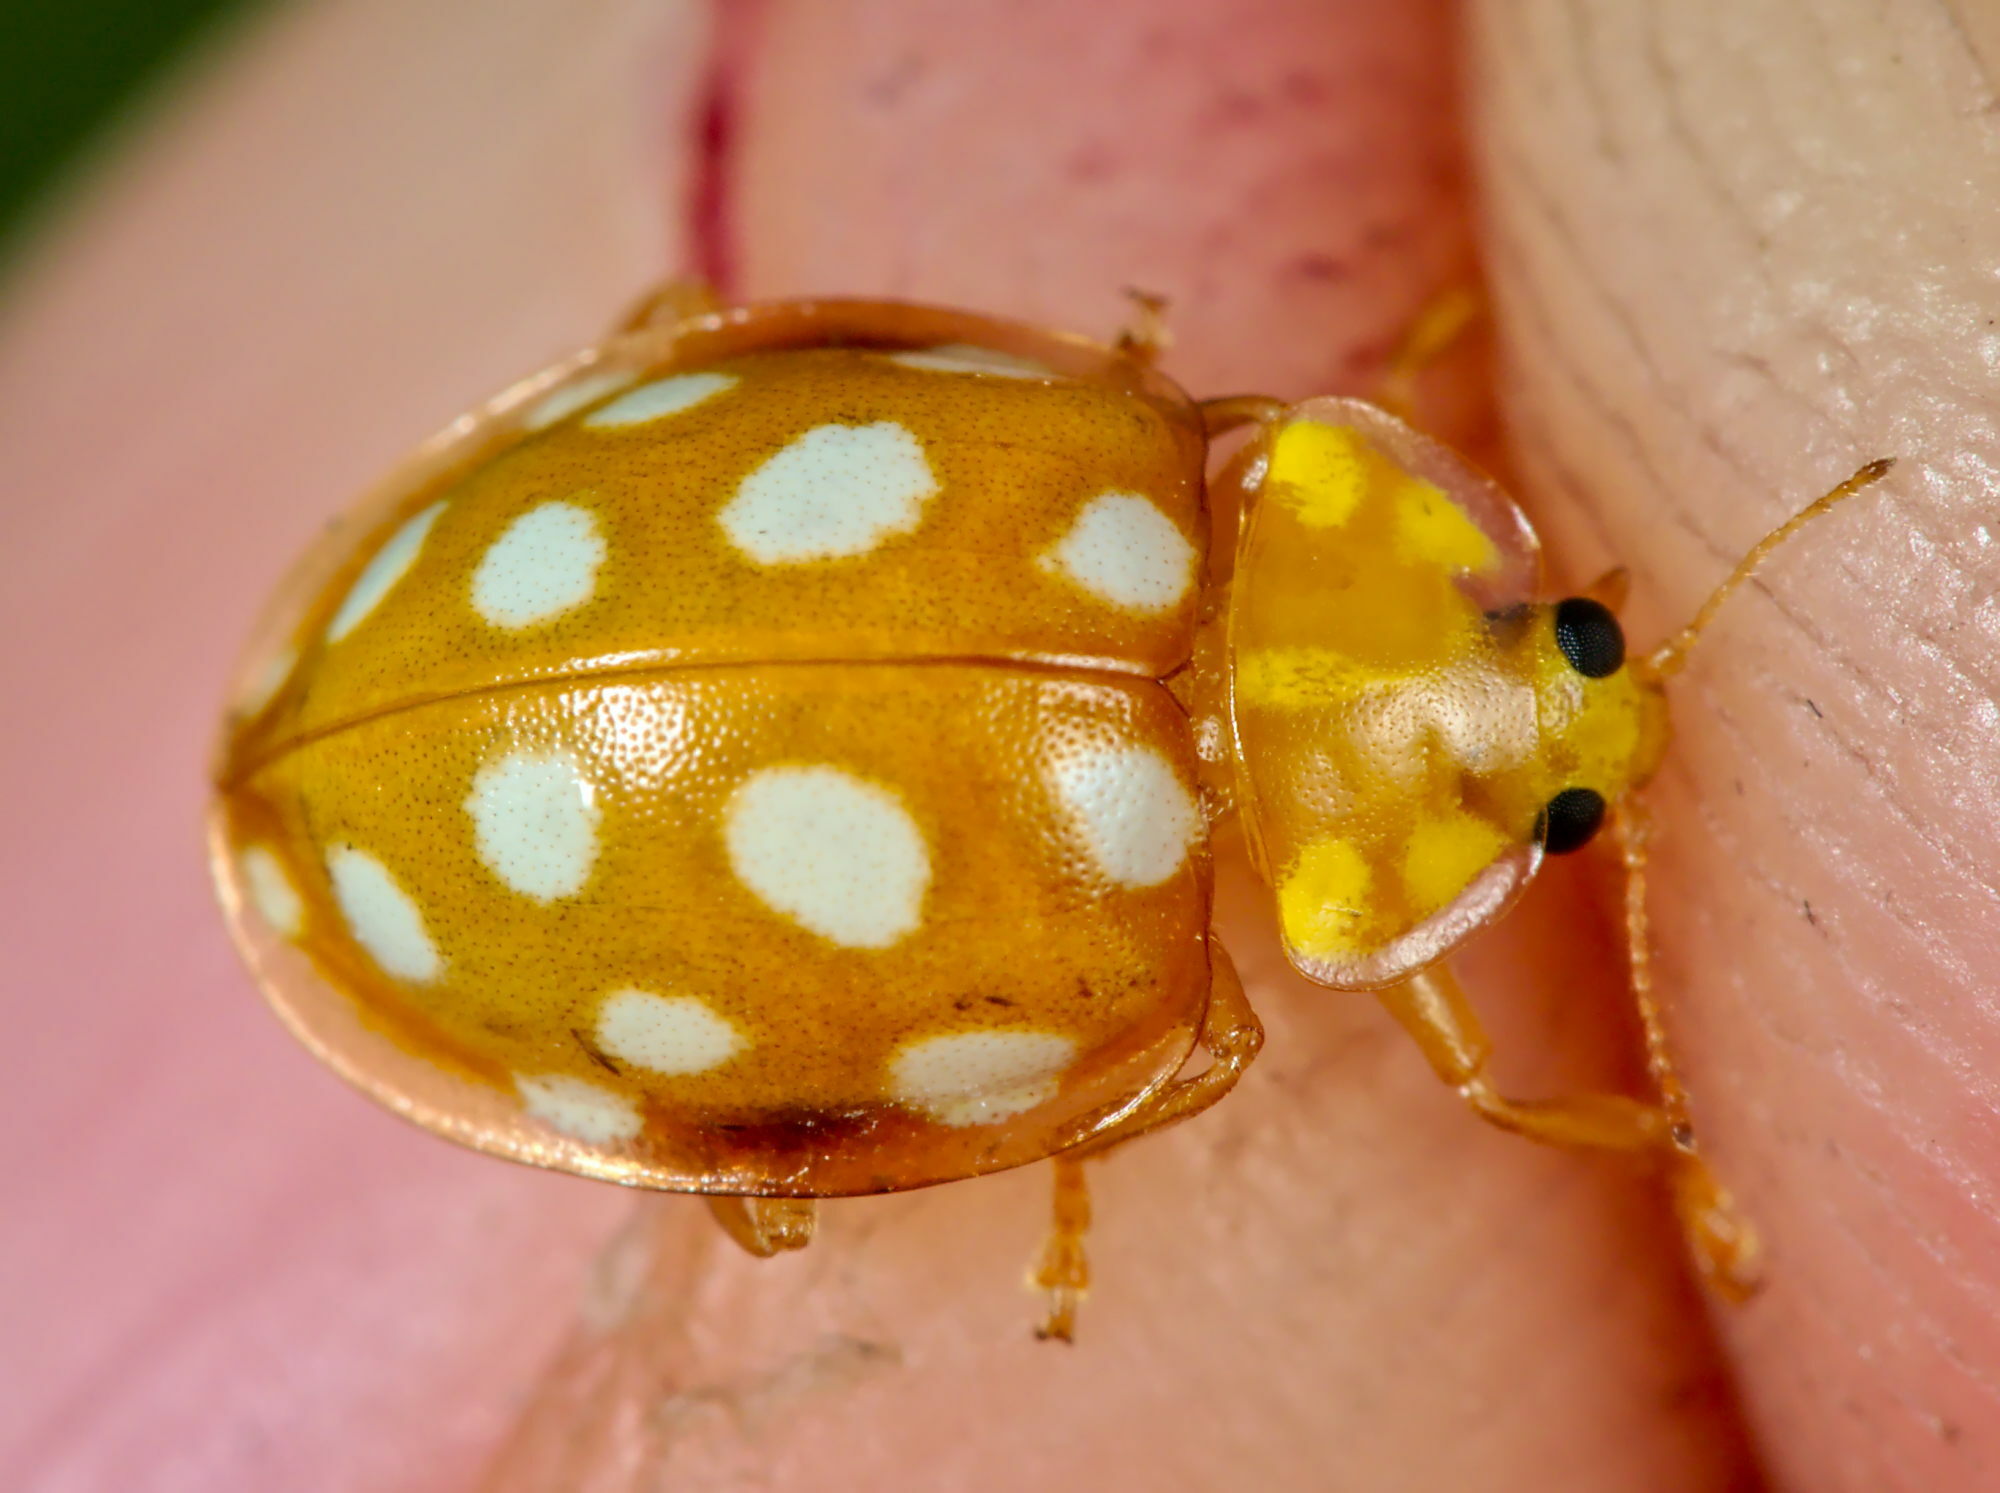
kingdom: Animalia
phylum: Arthropoda
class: Insecta
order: Coleoptera
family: Coccinellidae
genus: Halyzia
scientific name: Halyzia sedecimguttata
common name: Orange ladybird
